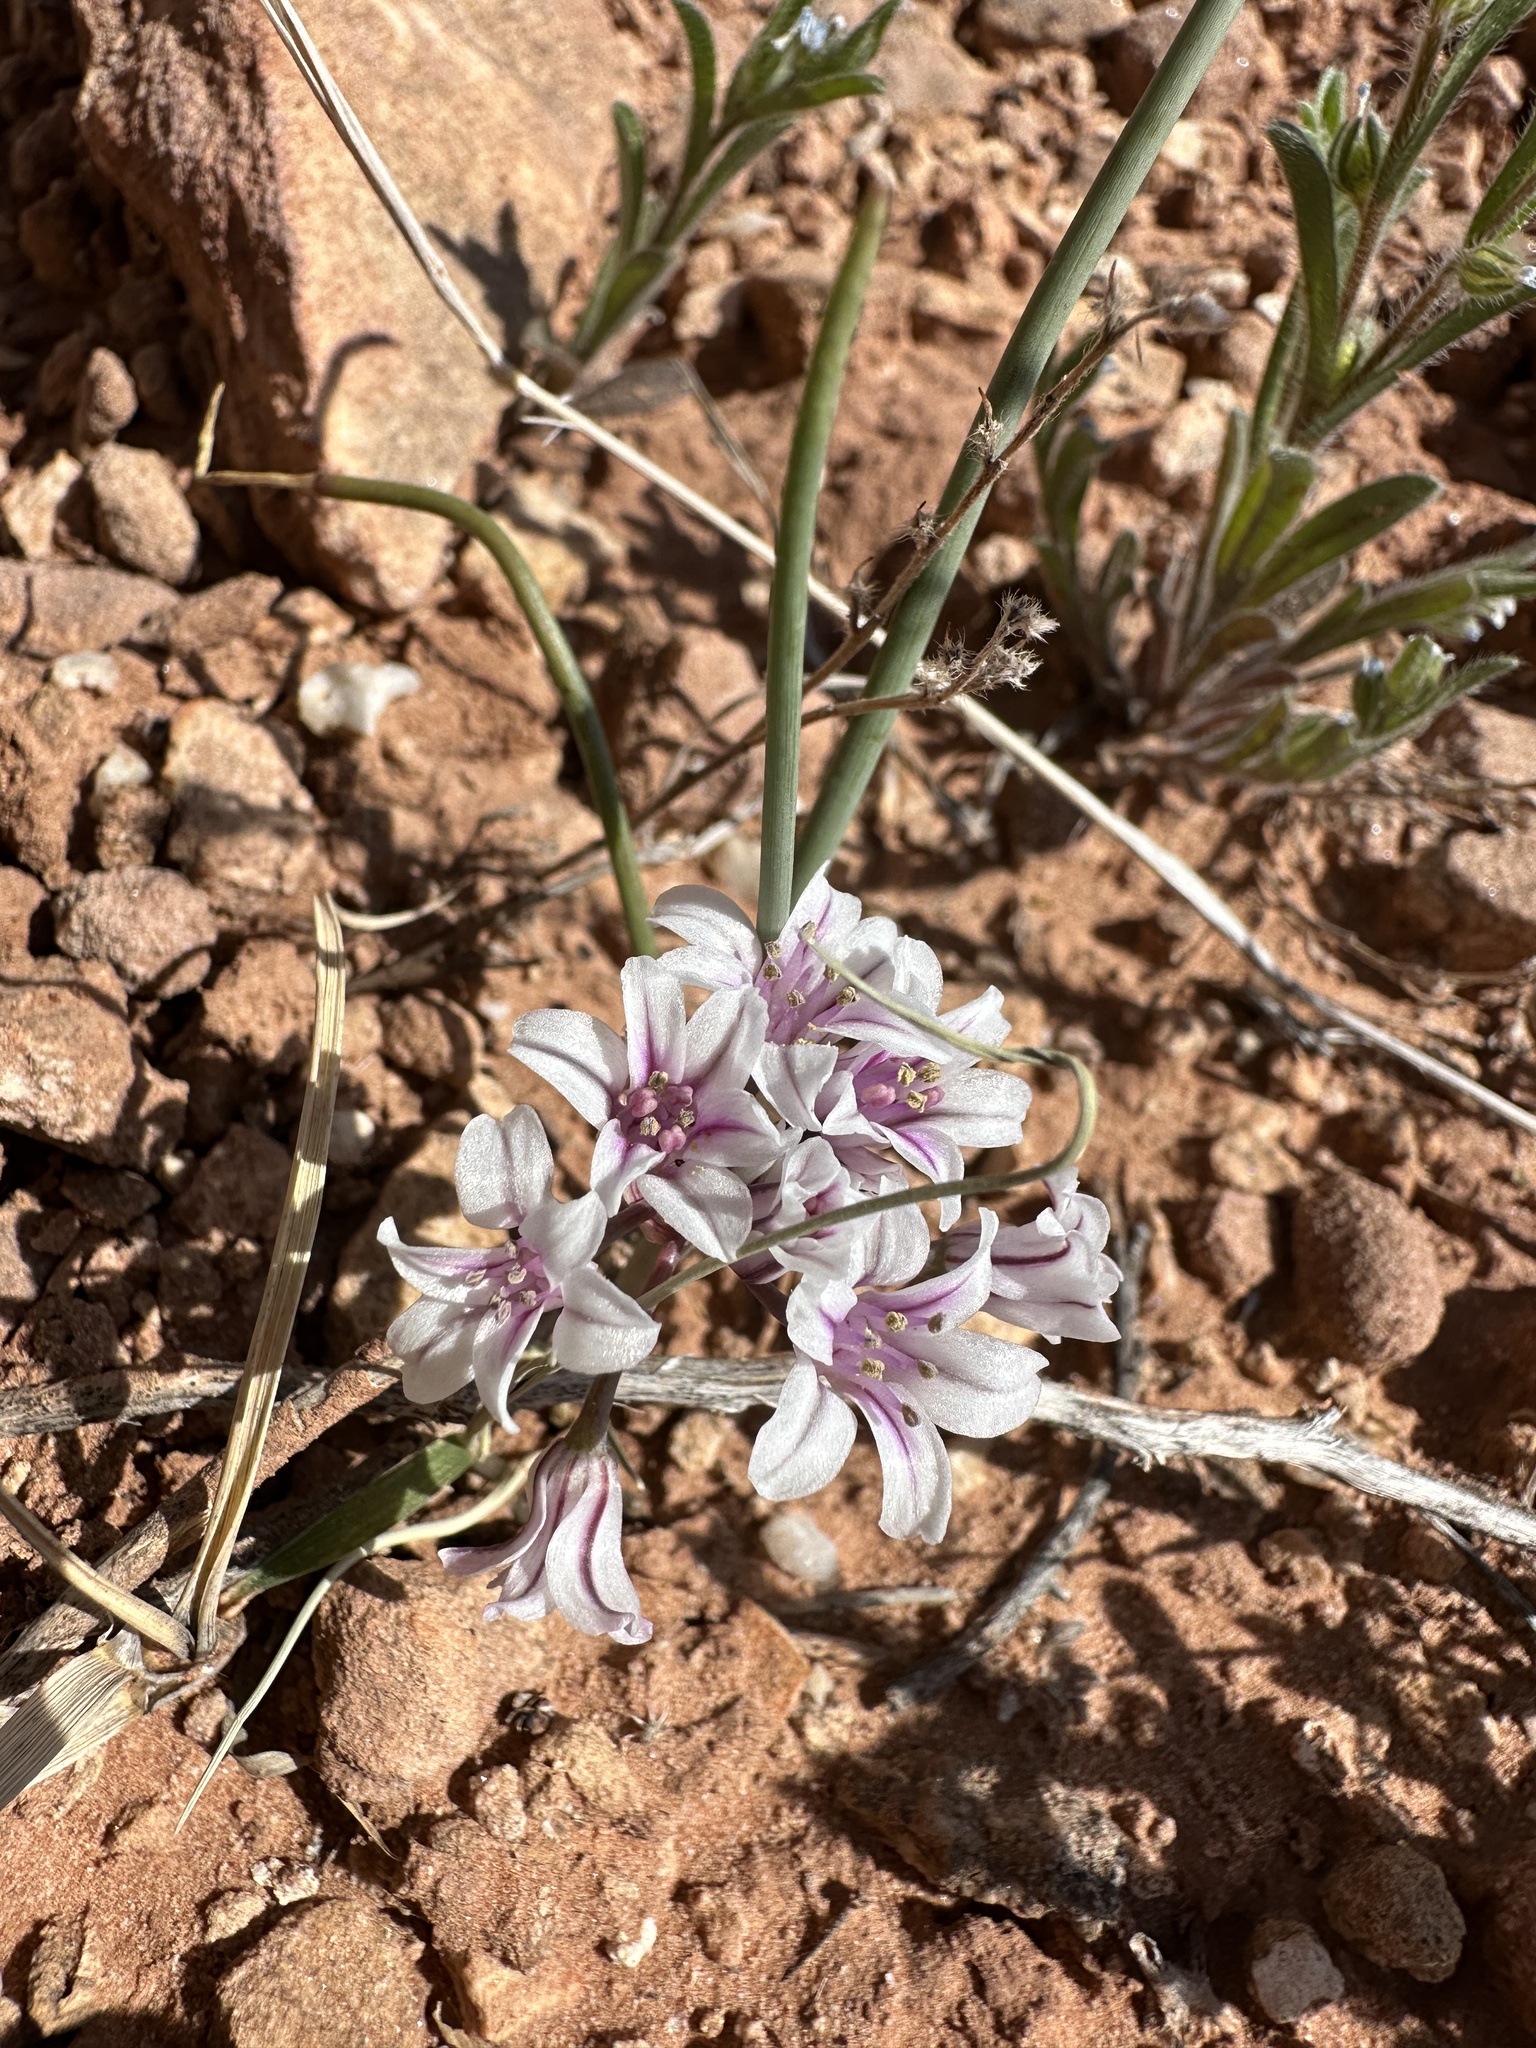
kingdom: Plantae
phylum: Tracheophyta
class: Liliopsida
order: Asparagales
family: Amaryllidaceae
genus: Allium
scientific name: Allium macropetalum
